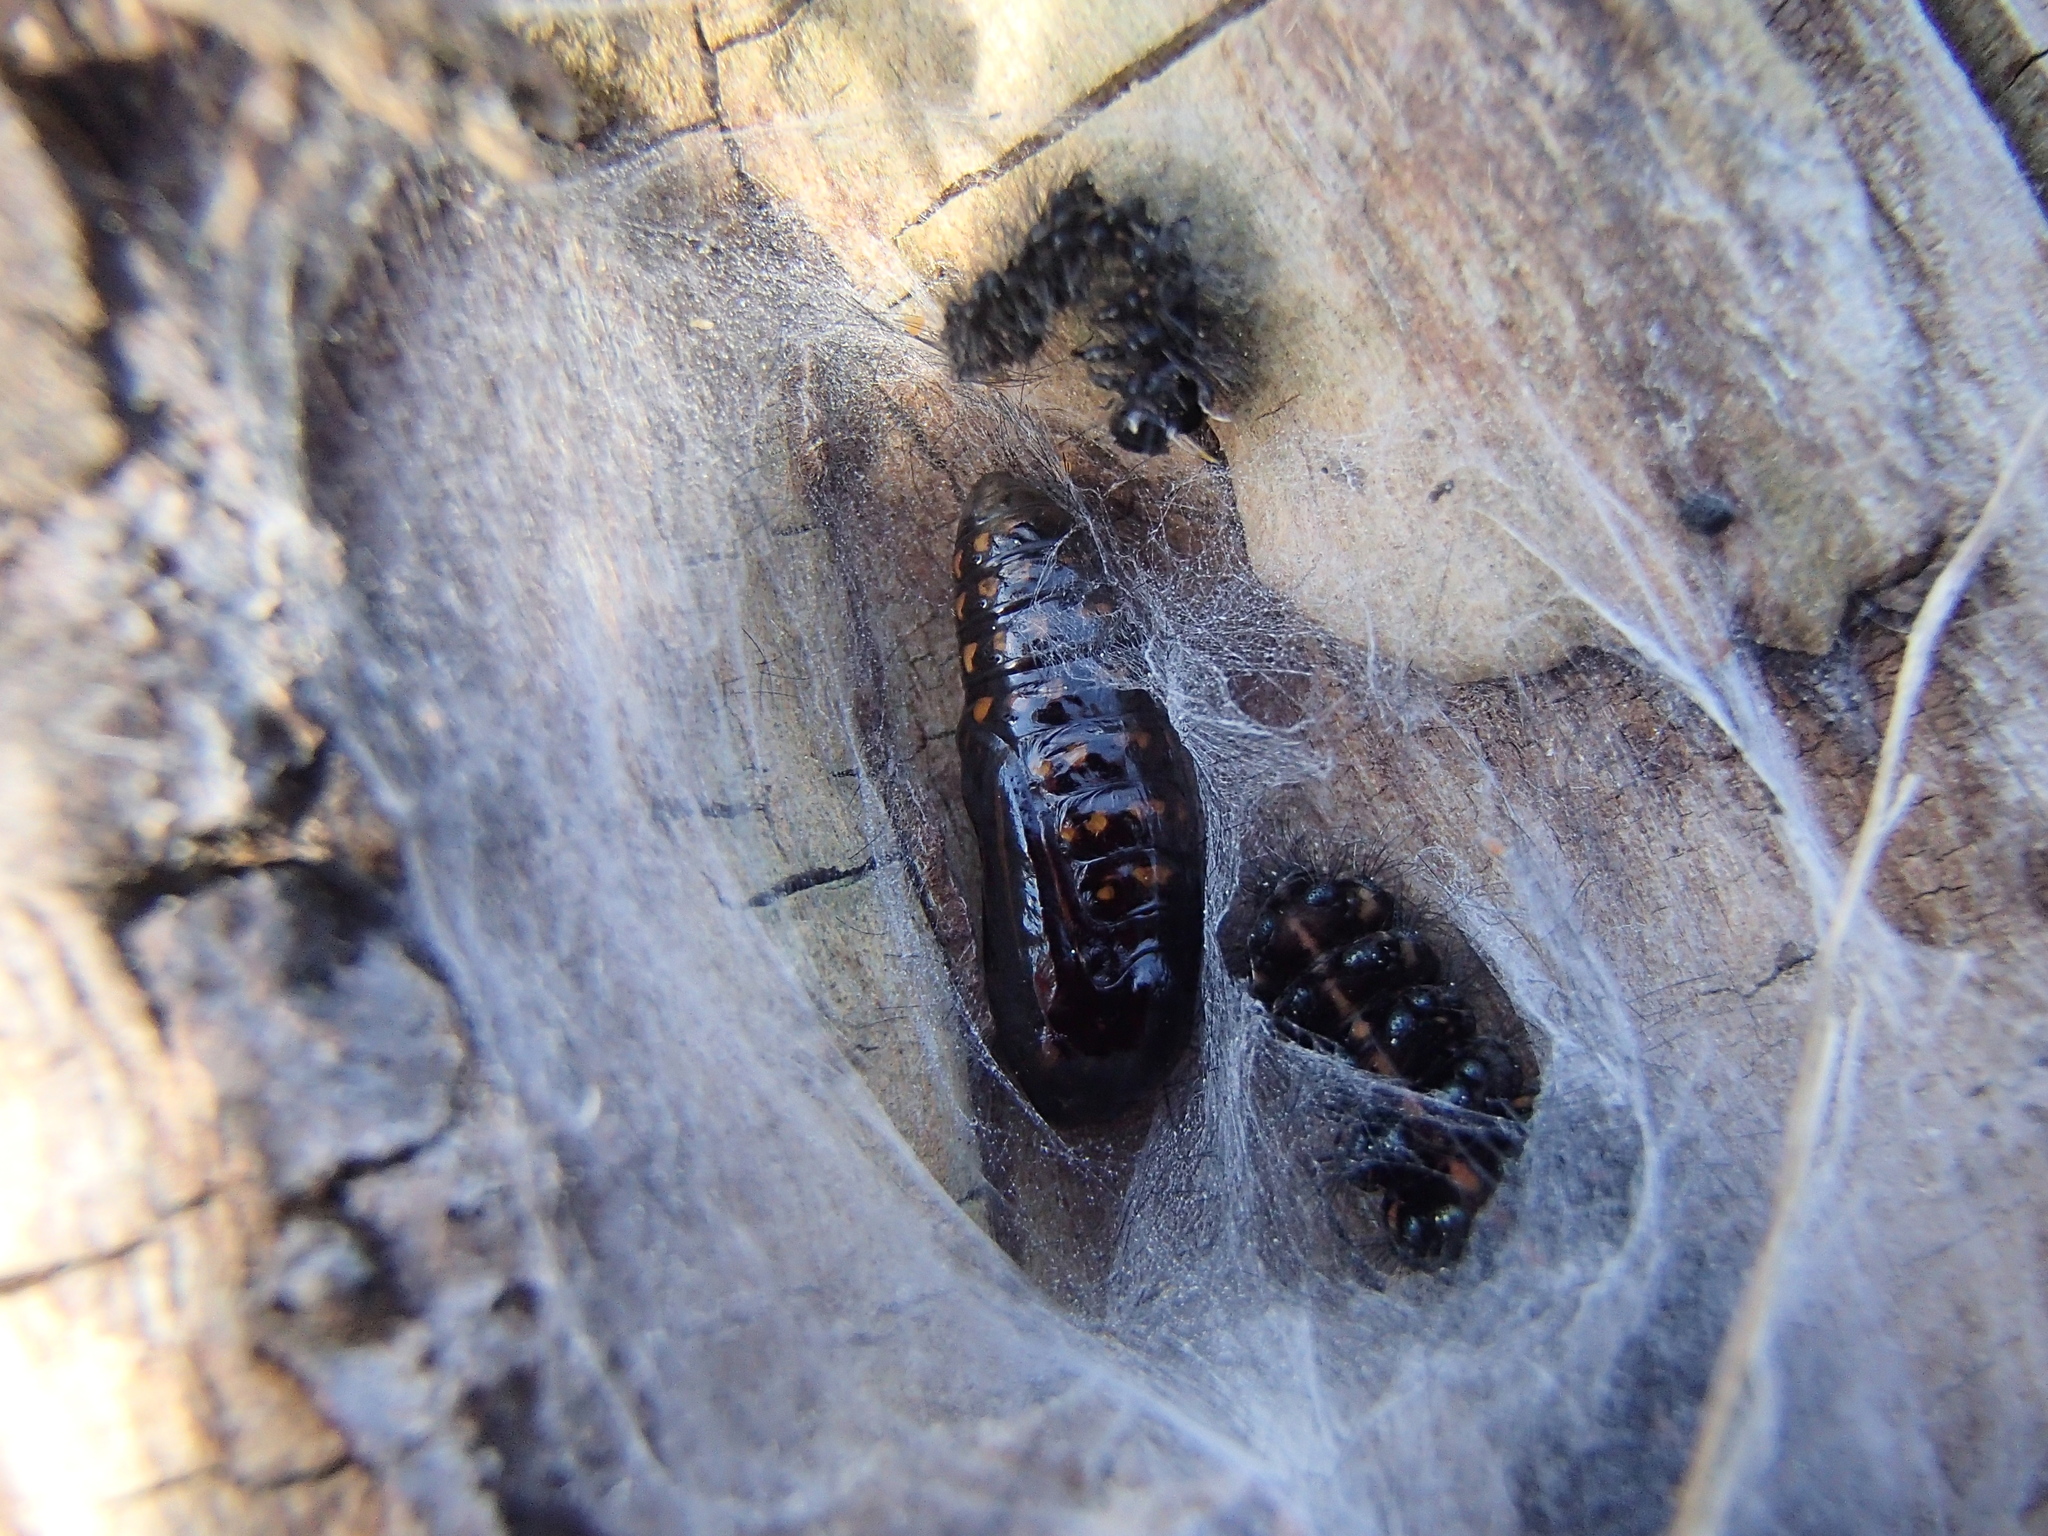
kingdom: Animalia
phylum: Arthropoda
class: Insecta
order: Lepidoptera
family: Erebidae
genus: Nyctemera
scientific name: Nyctemera annulatum
